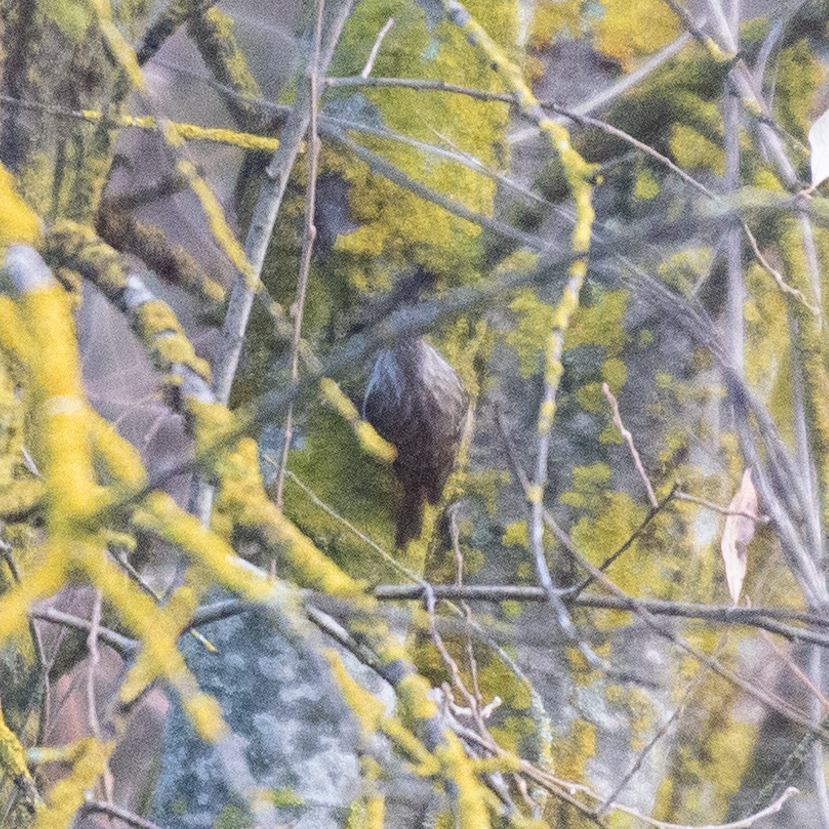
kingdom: Animalia
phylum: Chordata
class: Aves
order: Passeriformes
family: Certhiidae
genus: Certhia
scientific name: Certhia brachydactyla
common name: Short-toed treecreeper
